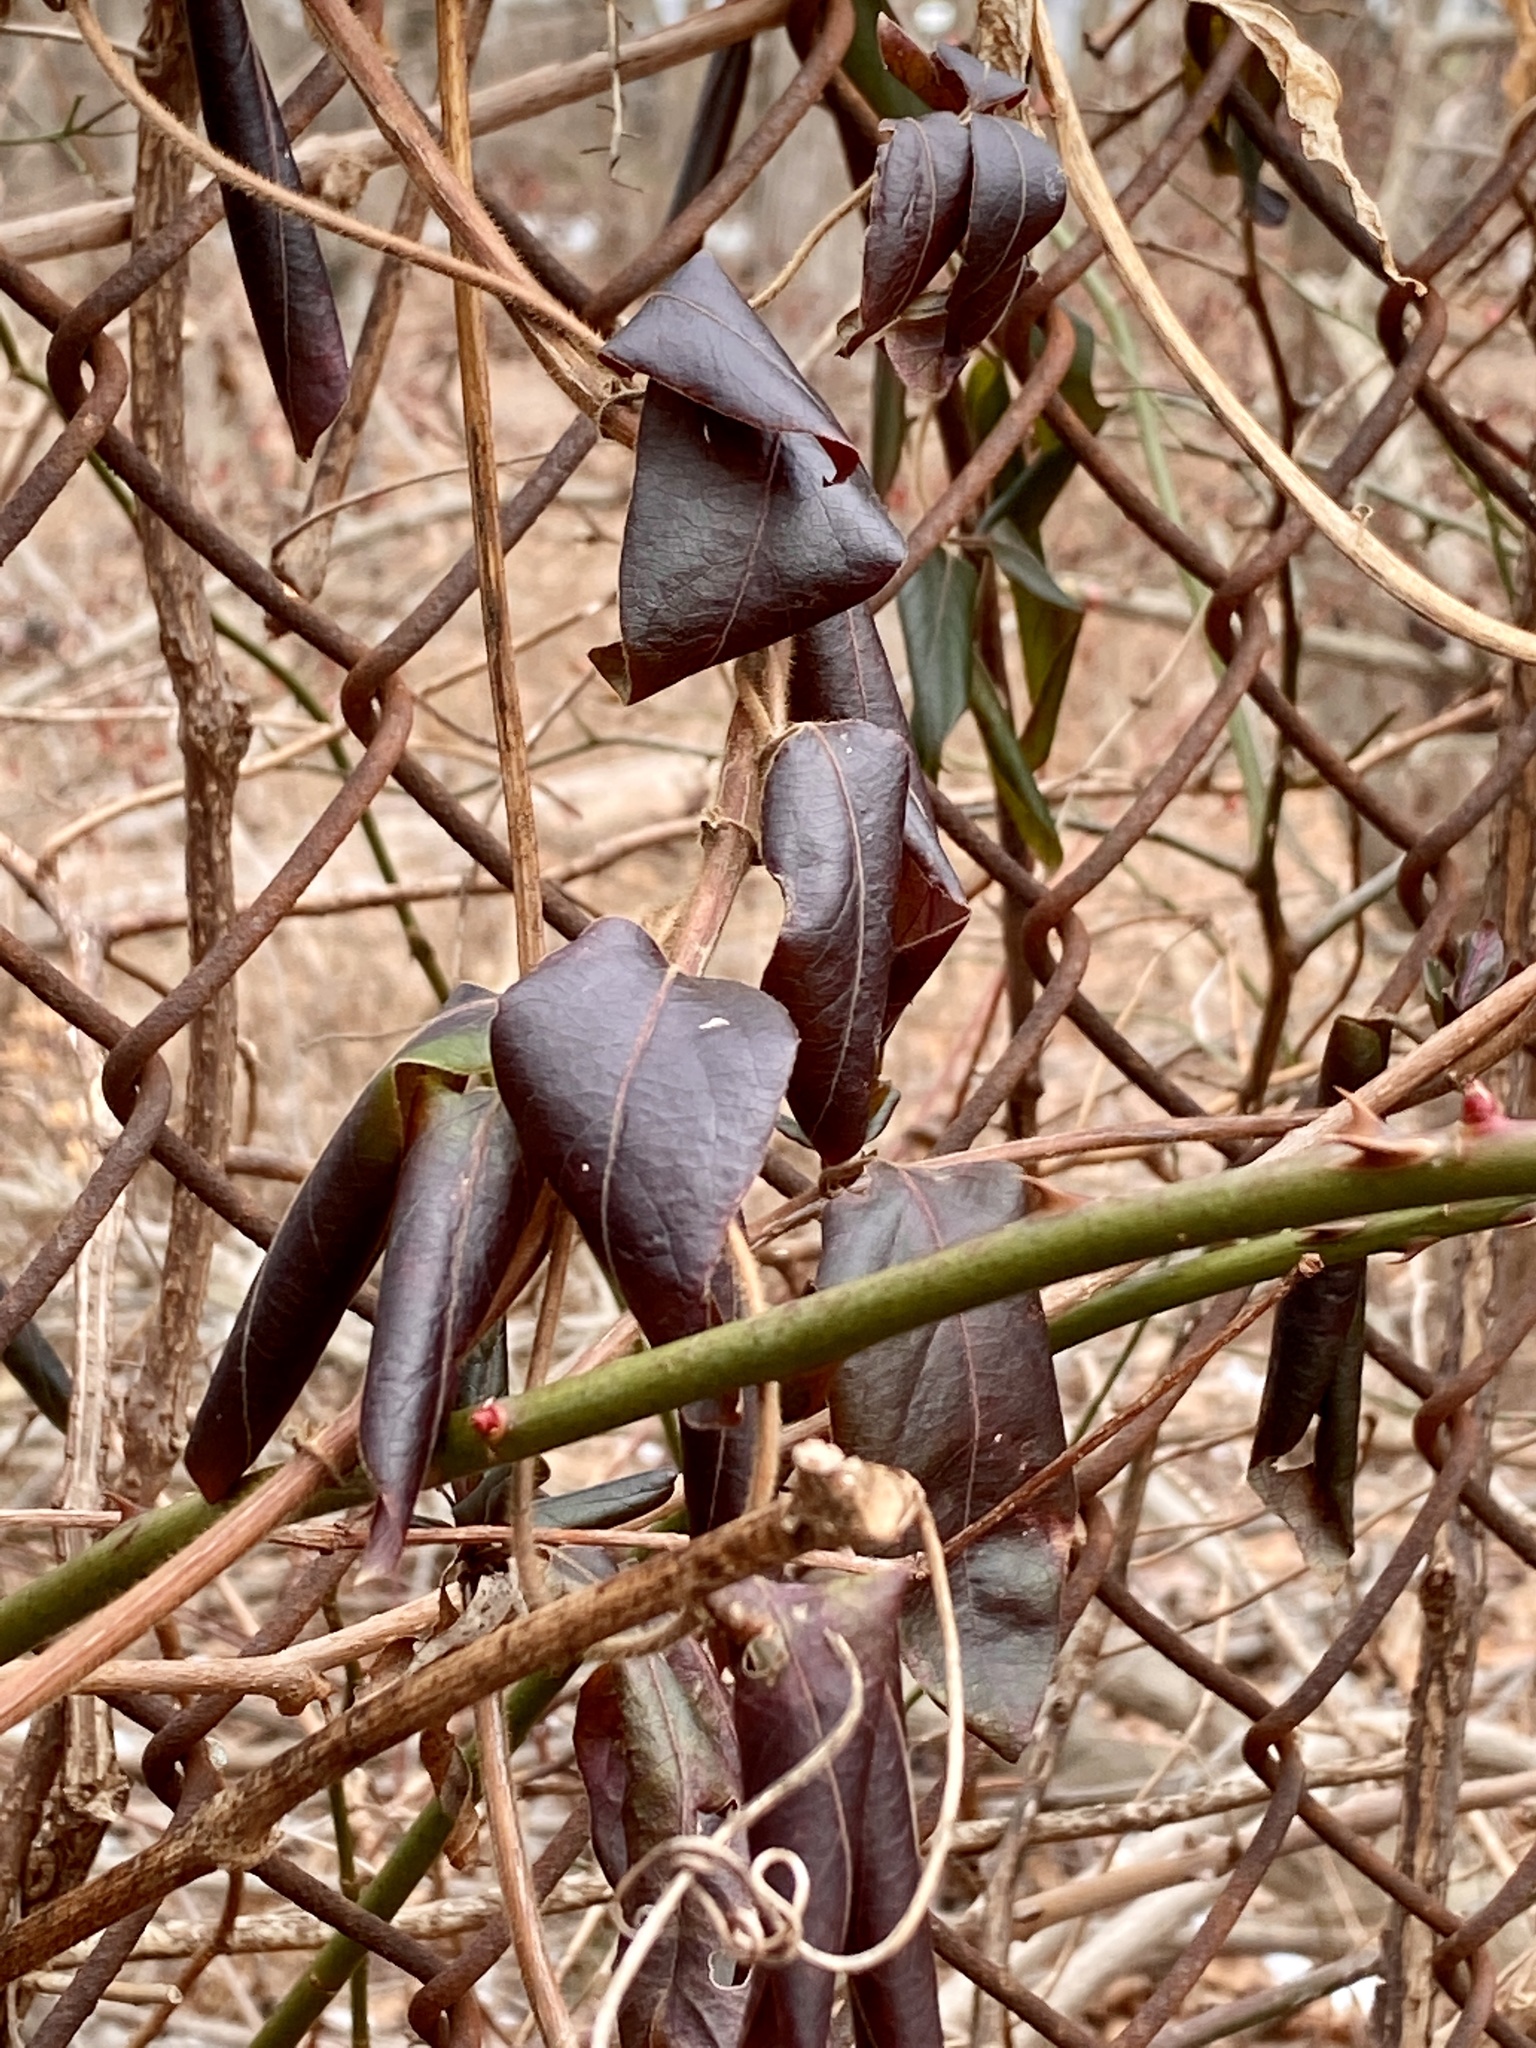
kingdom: Plantae
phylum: Tracheophyta
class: Magnoliopsida
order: Dipsacales
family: Caprifoliaceae
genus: Lonicera
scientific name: Lonicera japonica
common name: Japanese honeysuckle
